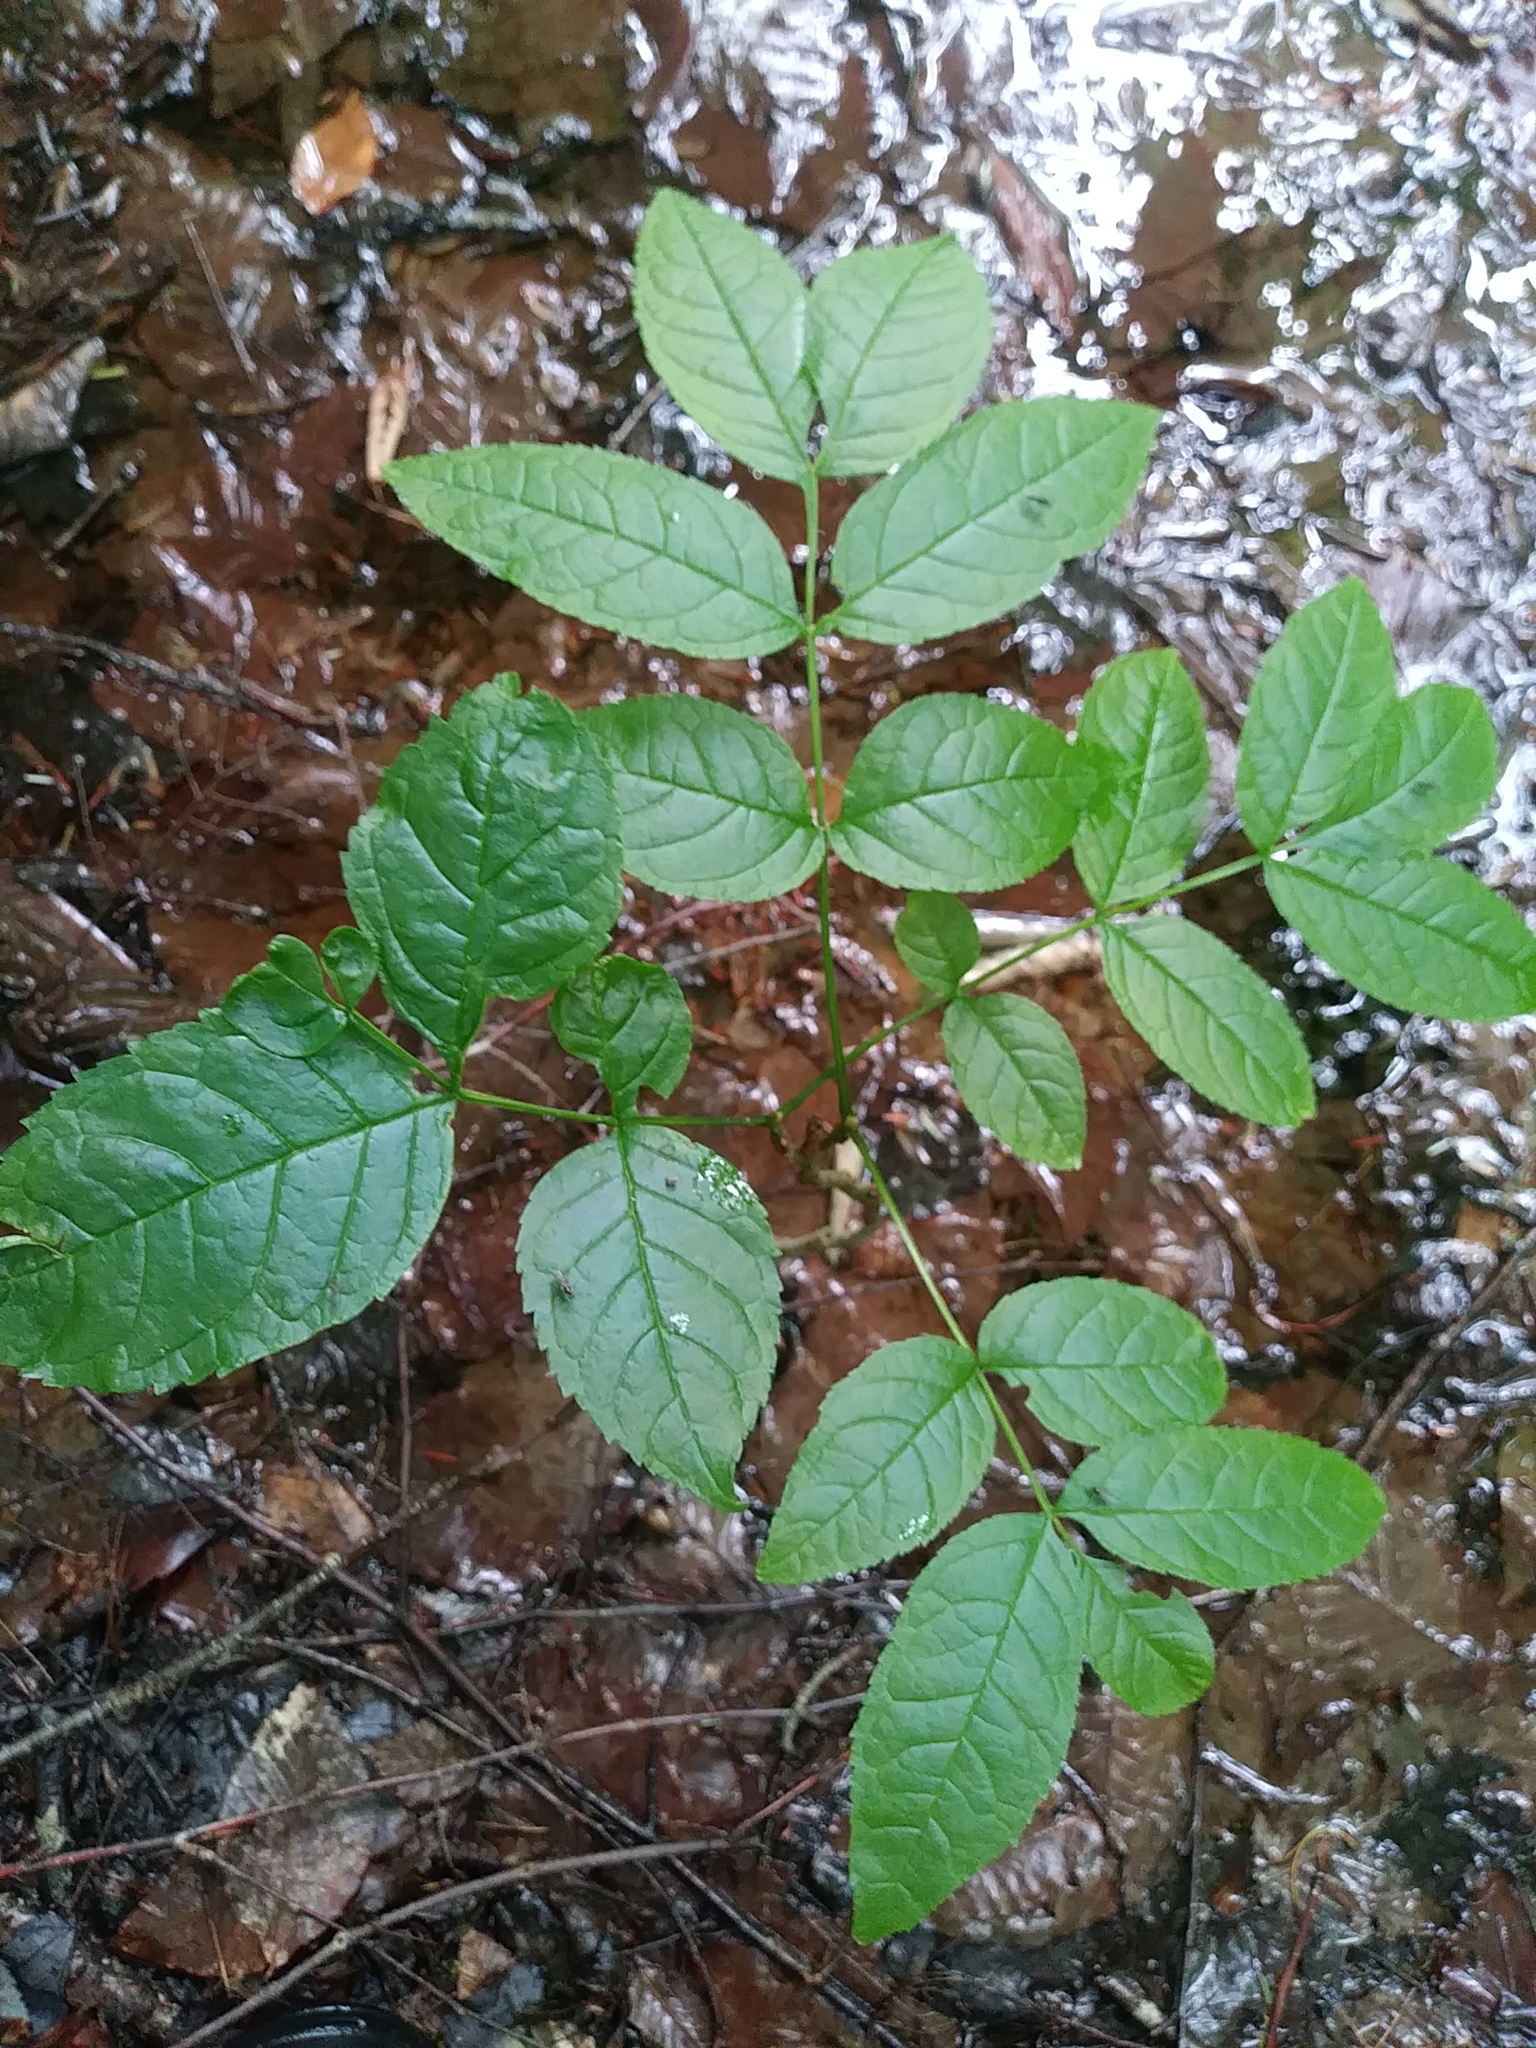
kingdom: Plantae
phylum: Tracheophyta
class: Magnoliopsida
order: Lamiales
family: Oleaceae
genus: Fraxinus
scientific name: Fraxinus nigra
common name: Black ash
